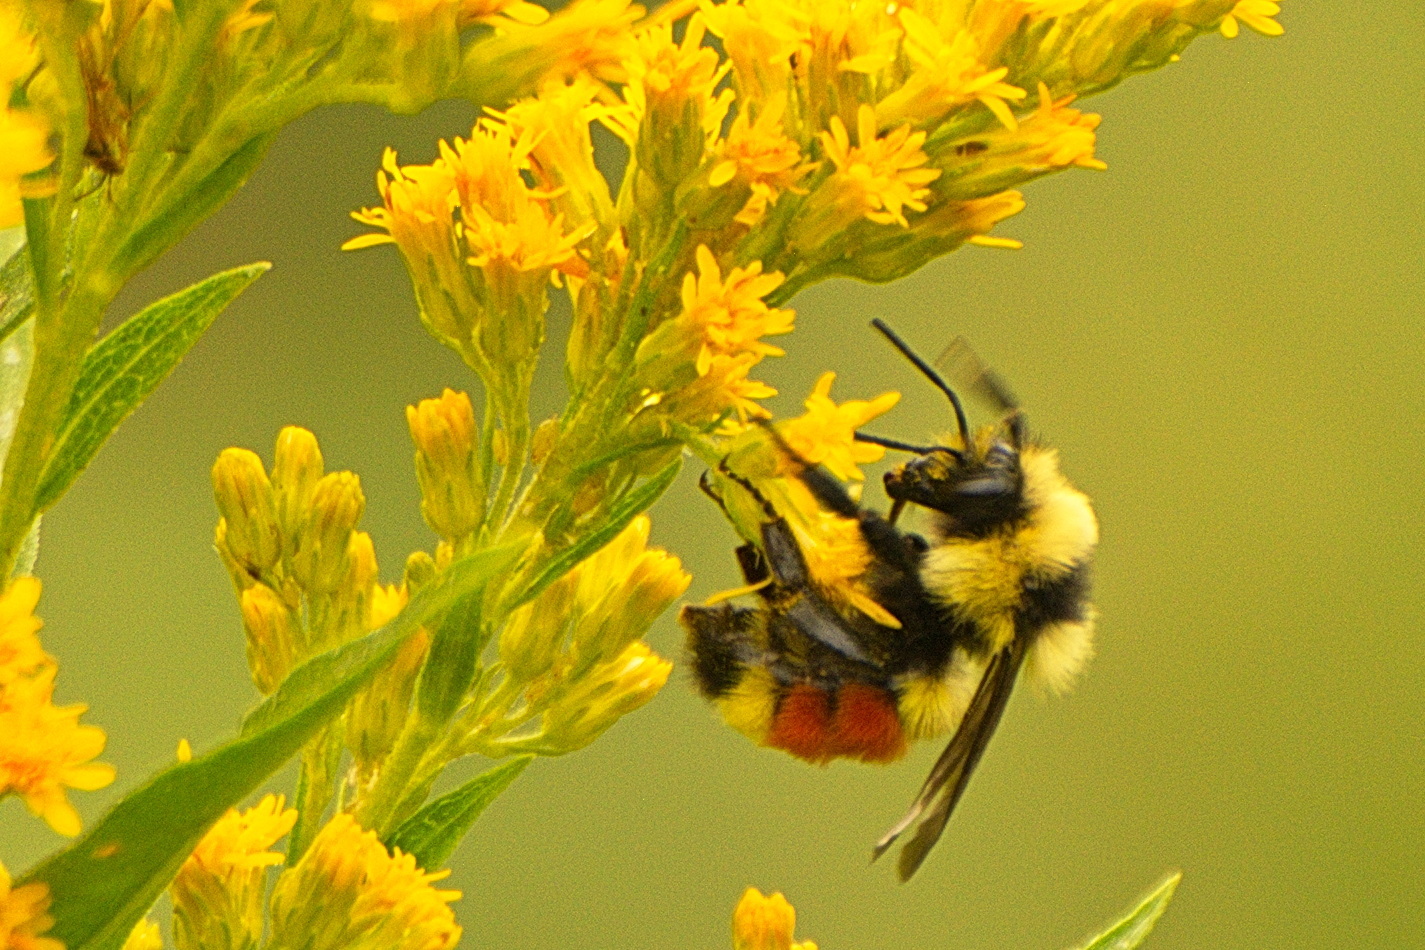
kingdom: Animalia
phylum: Arthropoda
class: Insecta
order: Hymenoptera
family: Apidae
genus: Bombus
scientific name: Bombus huntii
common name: Hunt bumble bee
